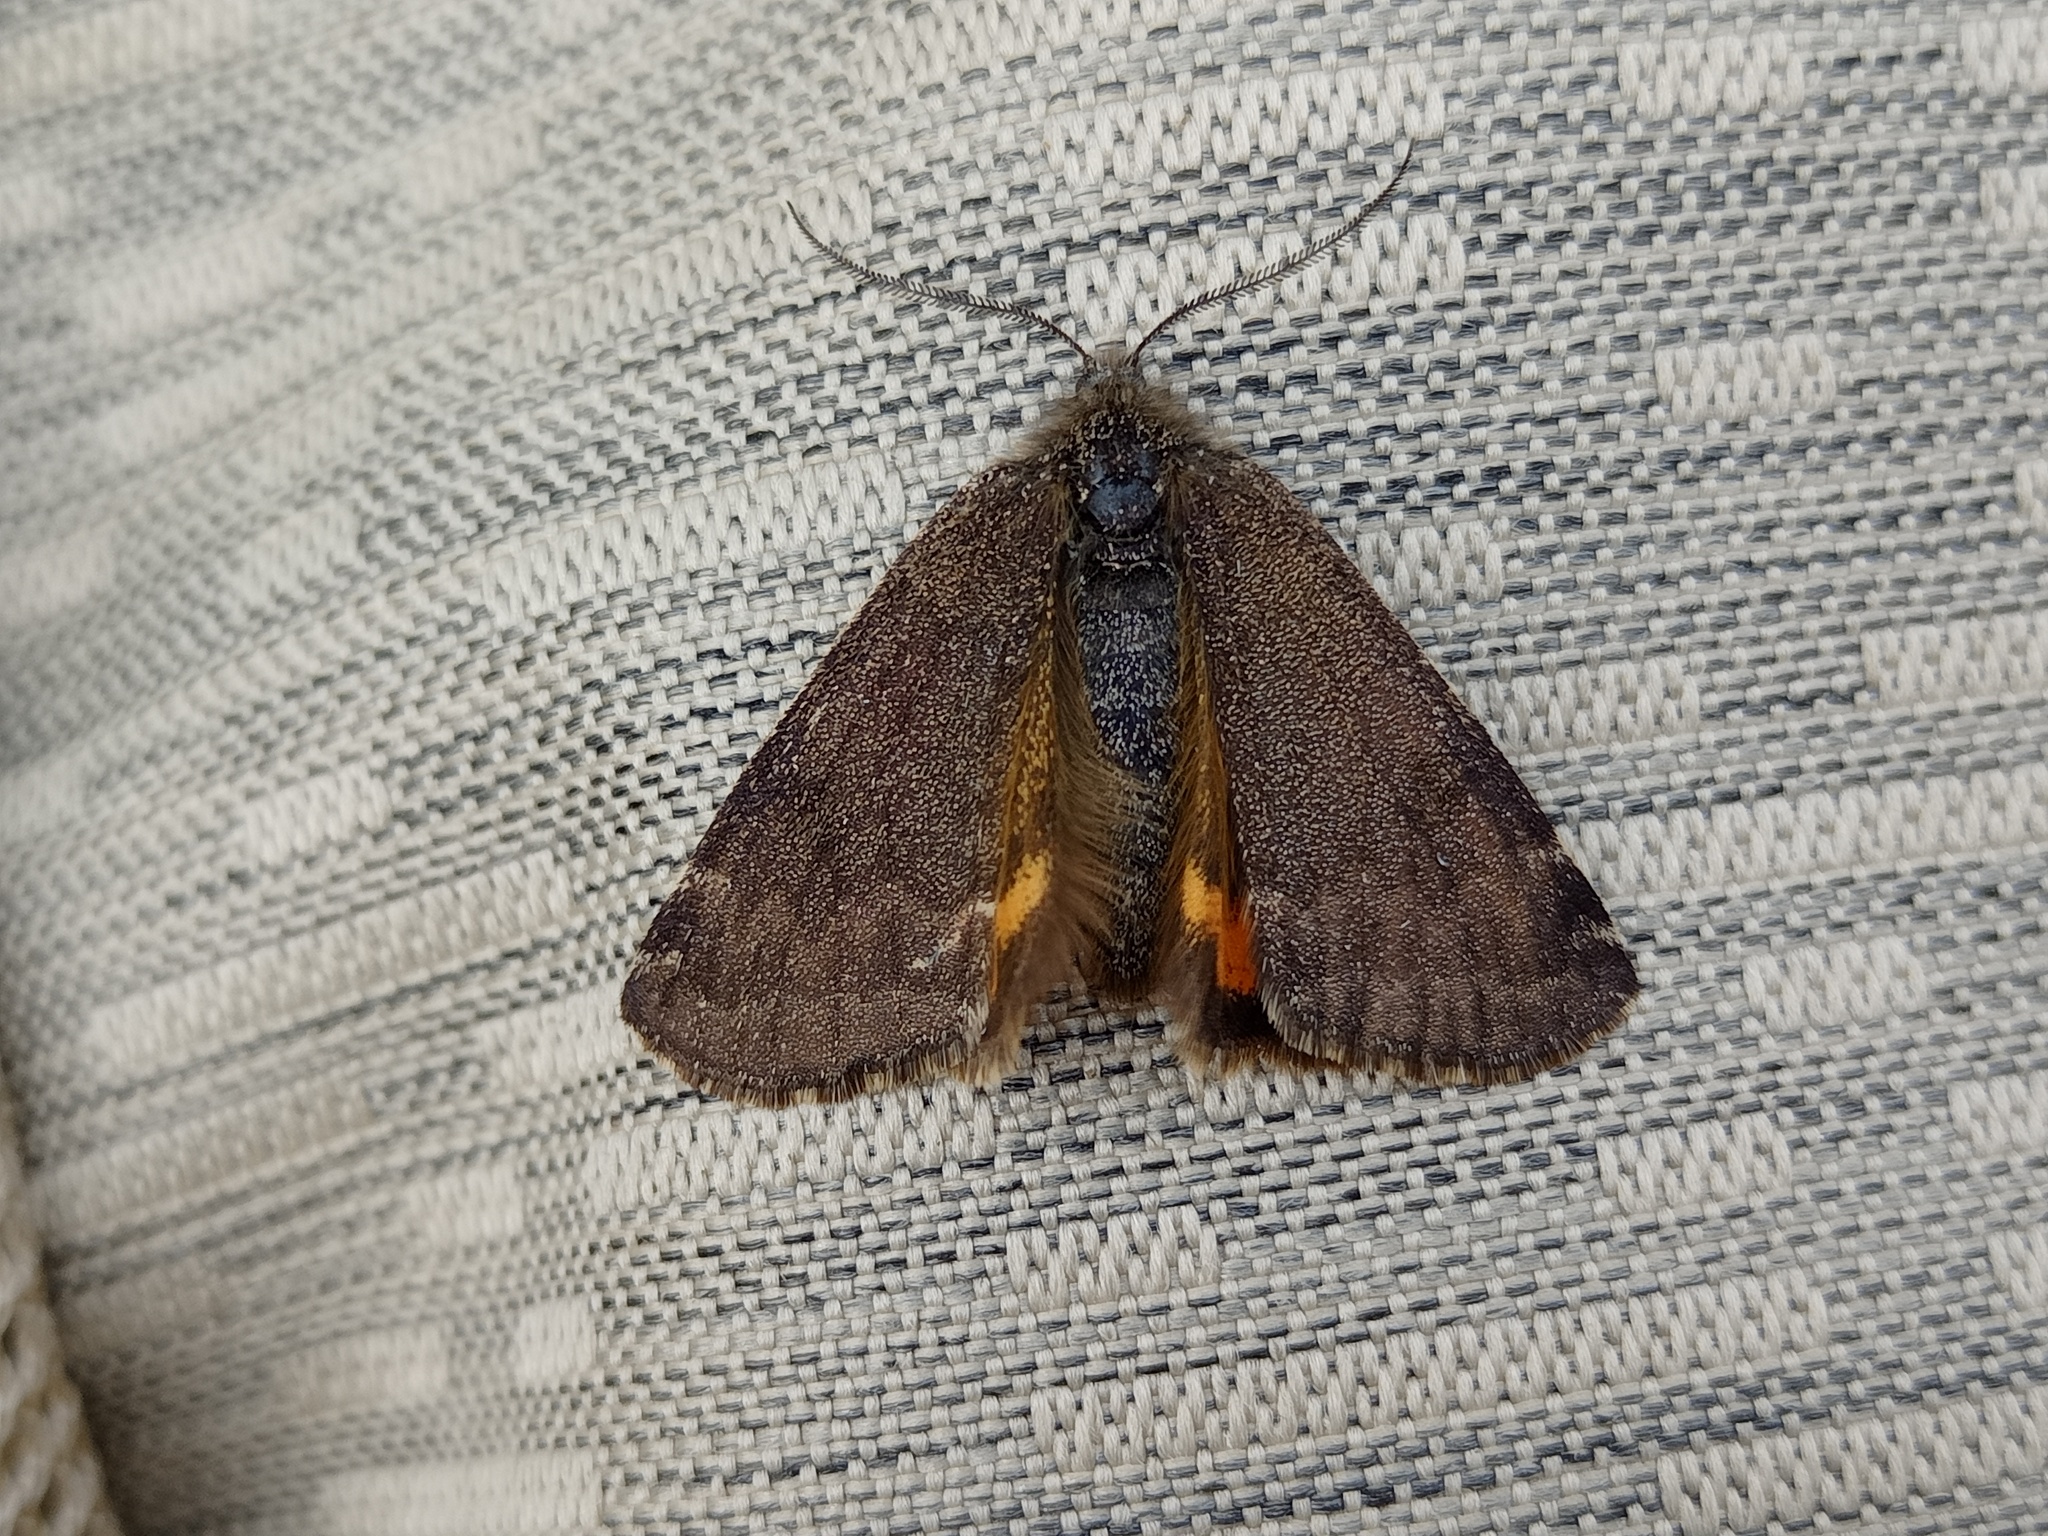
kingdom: Animalia
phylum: Arthropoda
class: Insecta
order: Lepidoptera
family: Geometridae
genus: Archiearis
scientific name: Archiearis notha
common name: Light orange underwing
